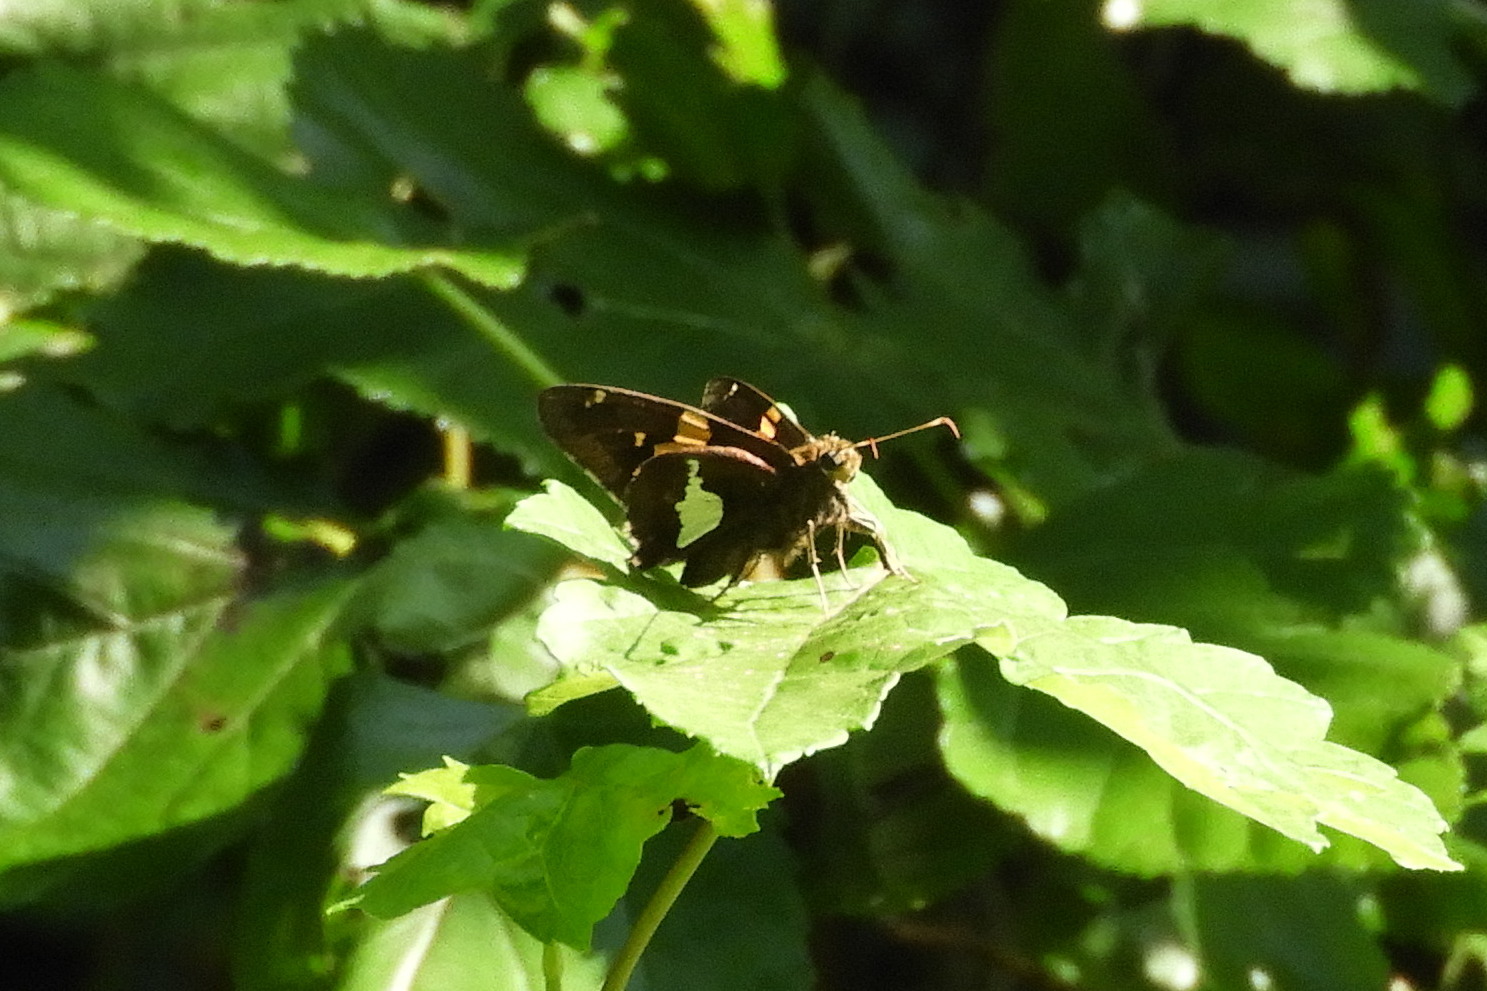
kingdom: Animalia
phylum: Arthropoda
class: Insecta
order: Lepidoptera
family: Hesperiidae
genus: Epargyreus
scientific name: Epargyreus clarus
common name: Silver-spotted skipper
